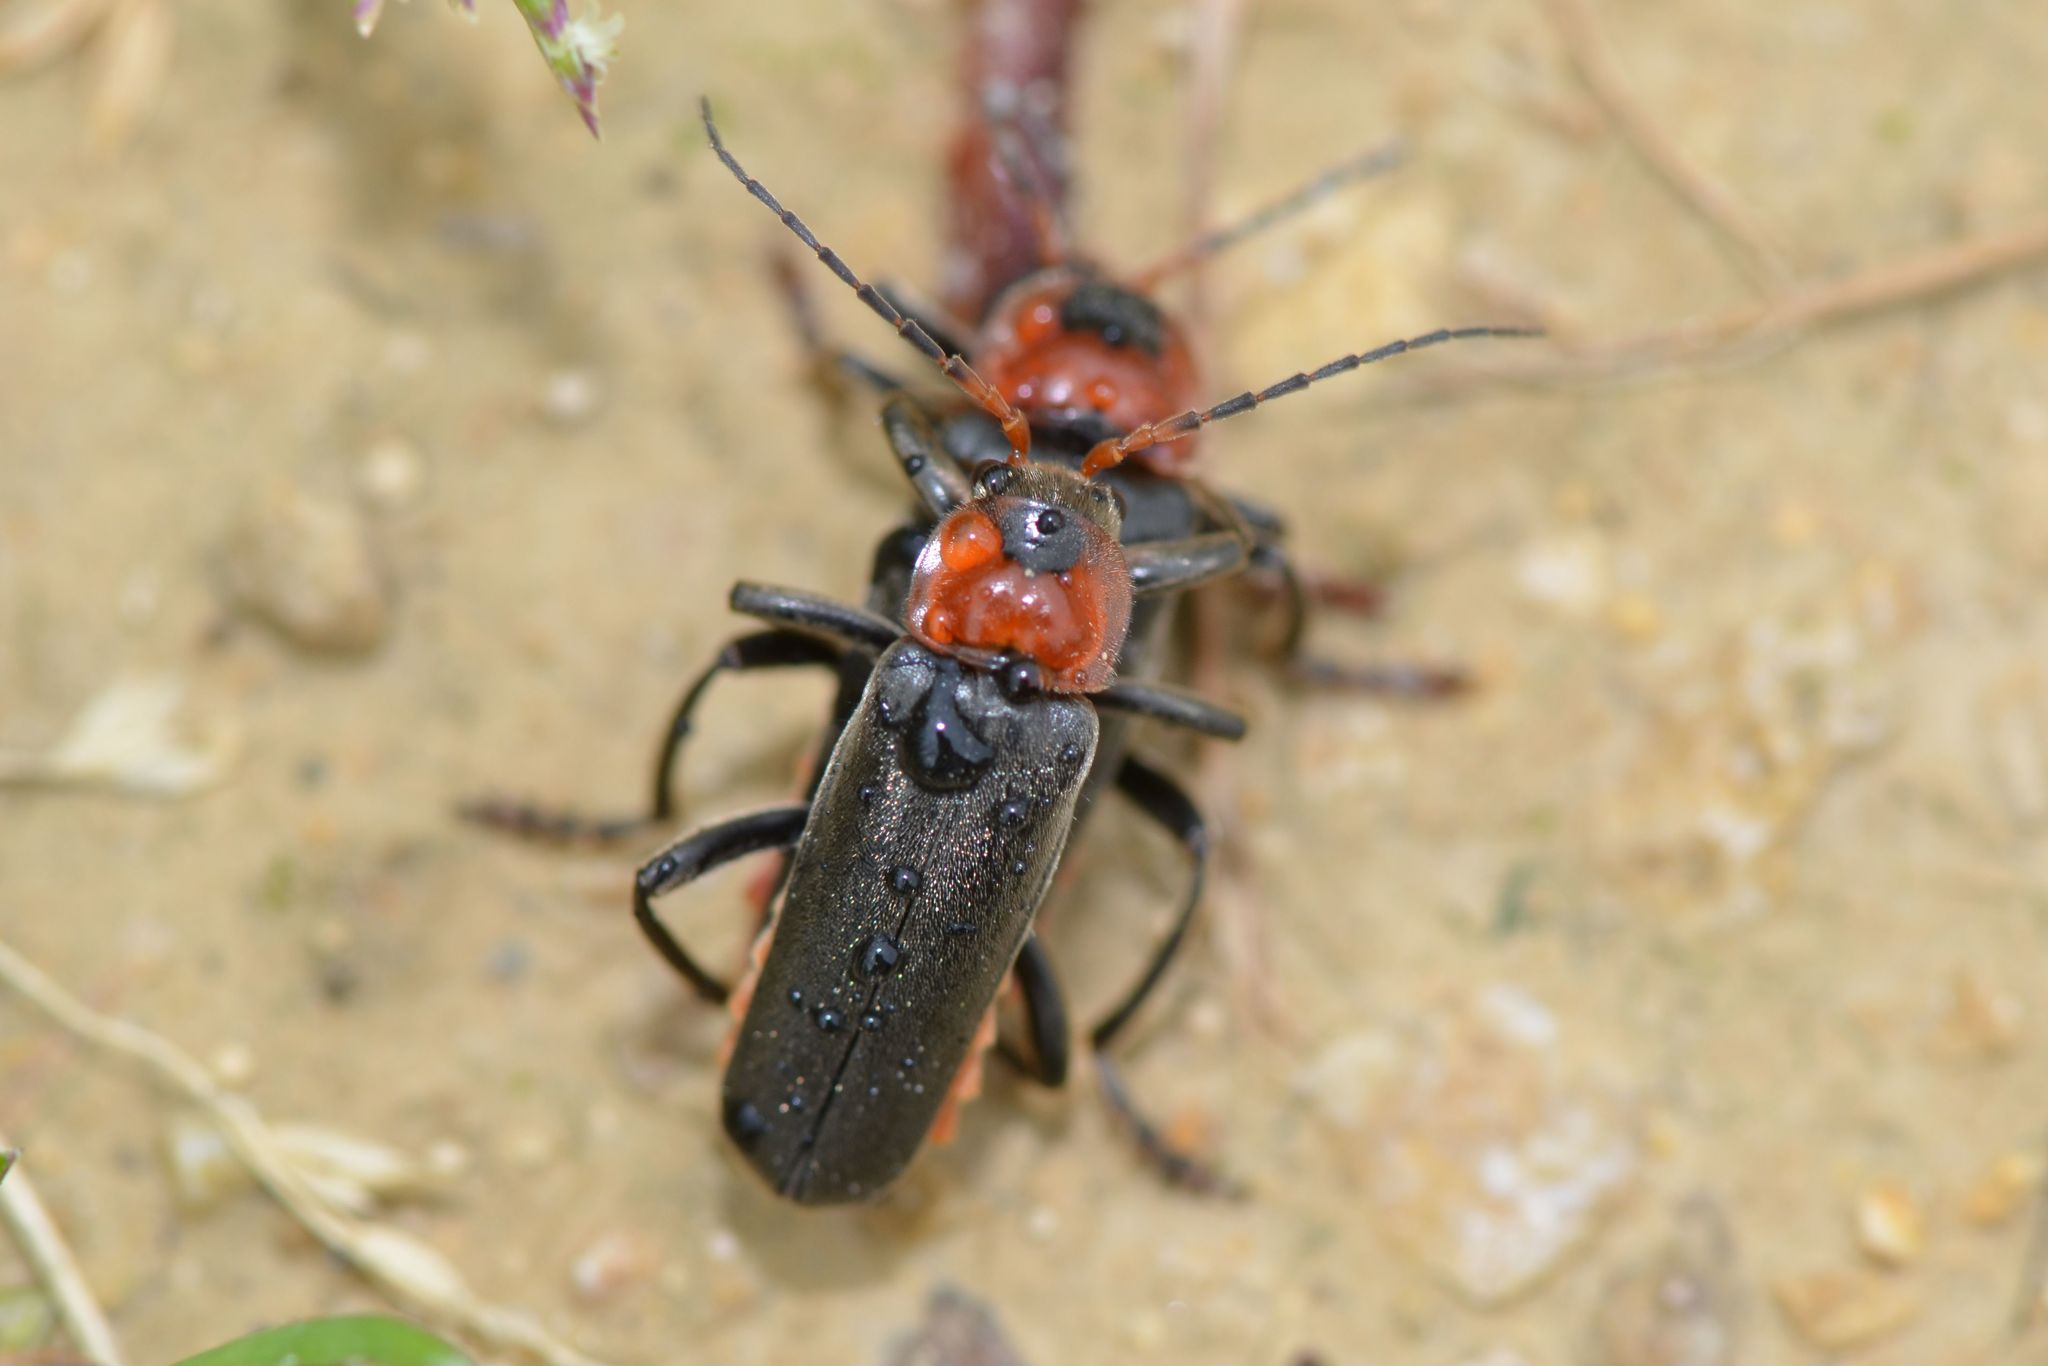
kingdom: Animalia
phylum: Arthropoda
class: Insecta
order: Coleoptera
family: Cantharidae
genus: Cantharis
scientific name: Cantharis fusca
